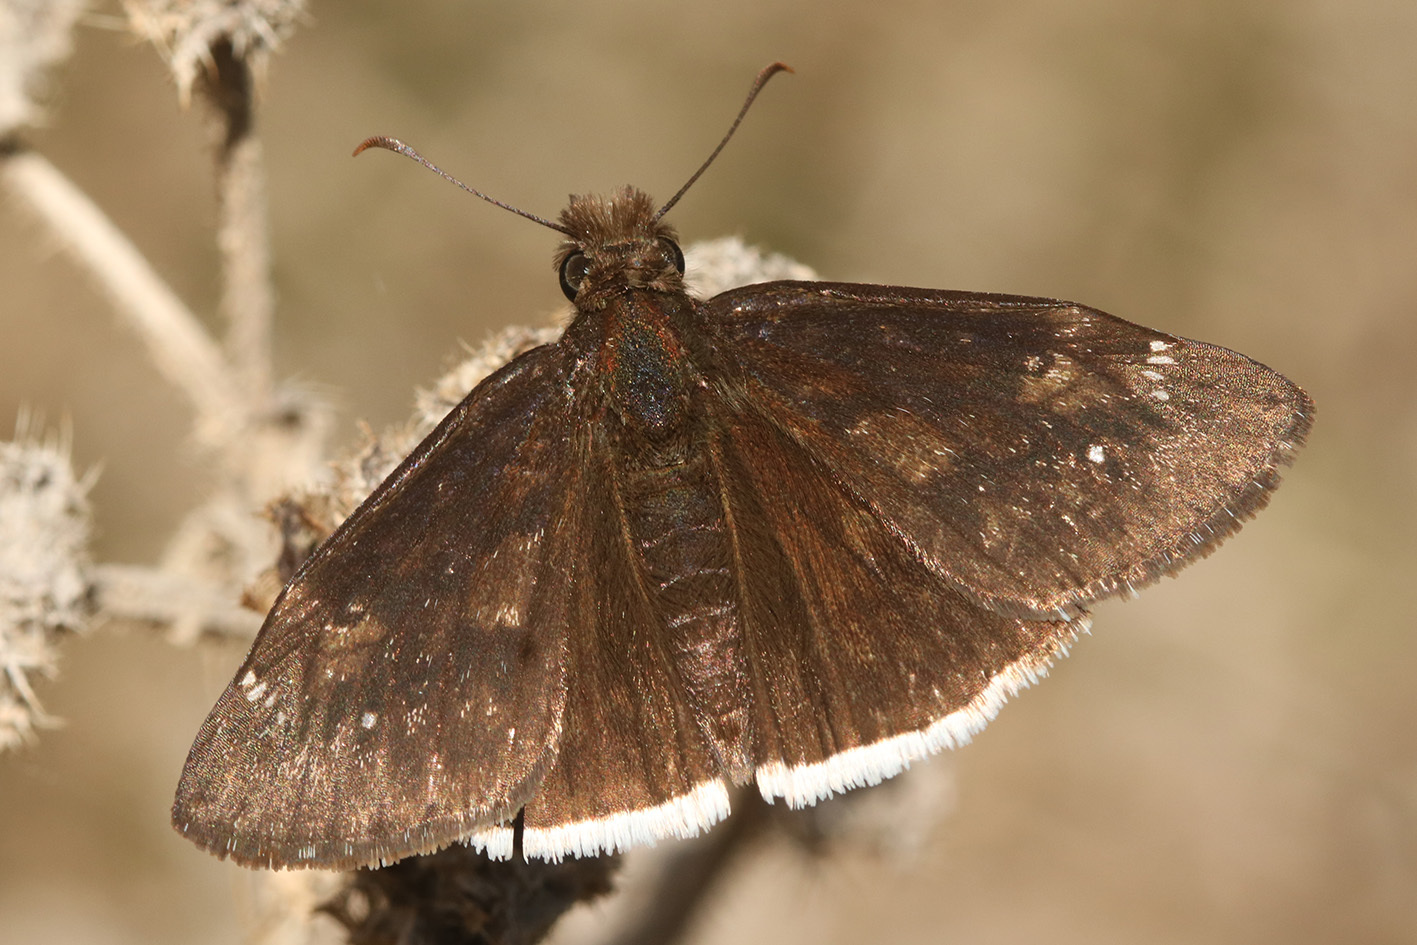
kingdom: Animalia
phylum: Arthropoda
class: Insecta
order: Lepidoptera
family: Hesperiidae
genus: Erynnis
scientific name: Erynnis funeralis
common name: Funereal duskywing
